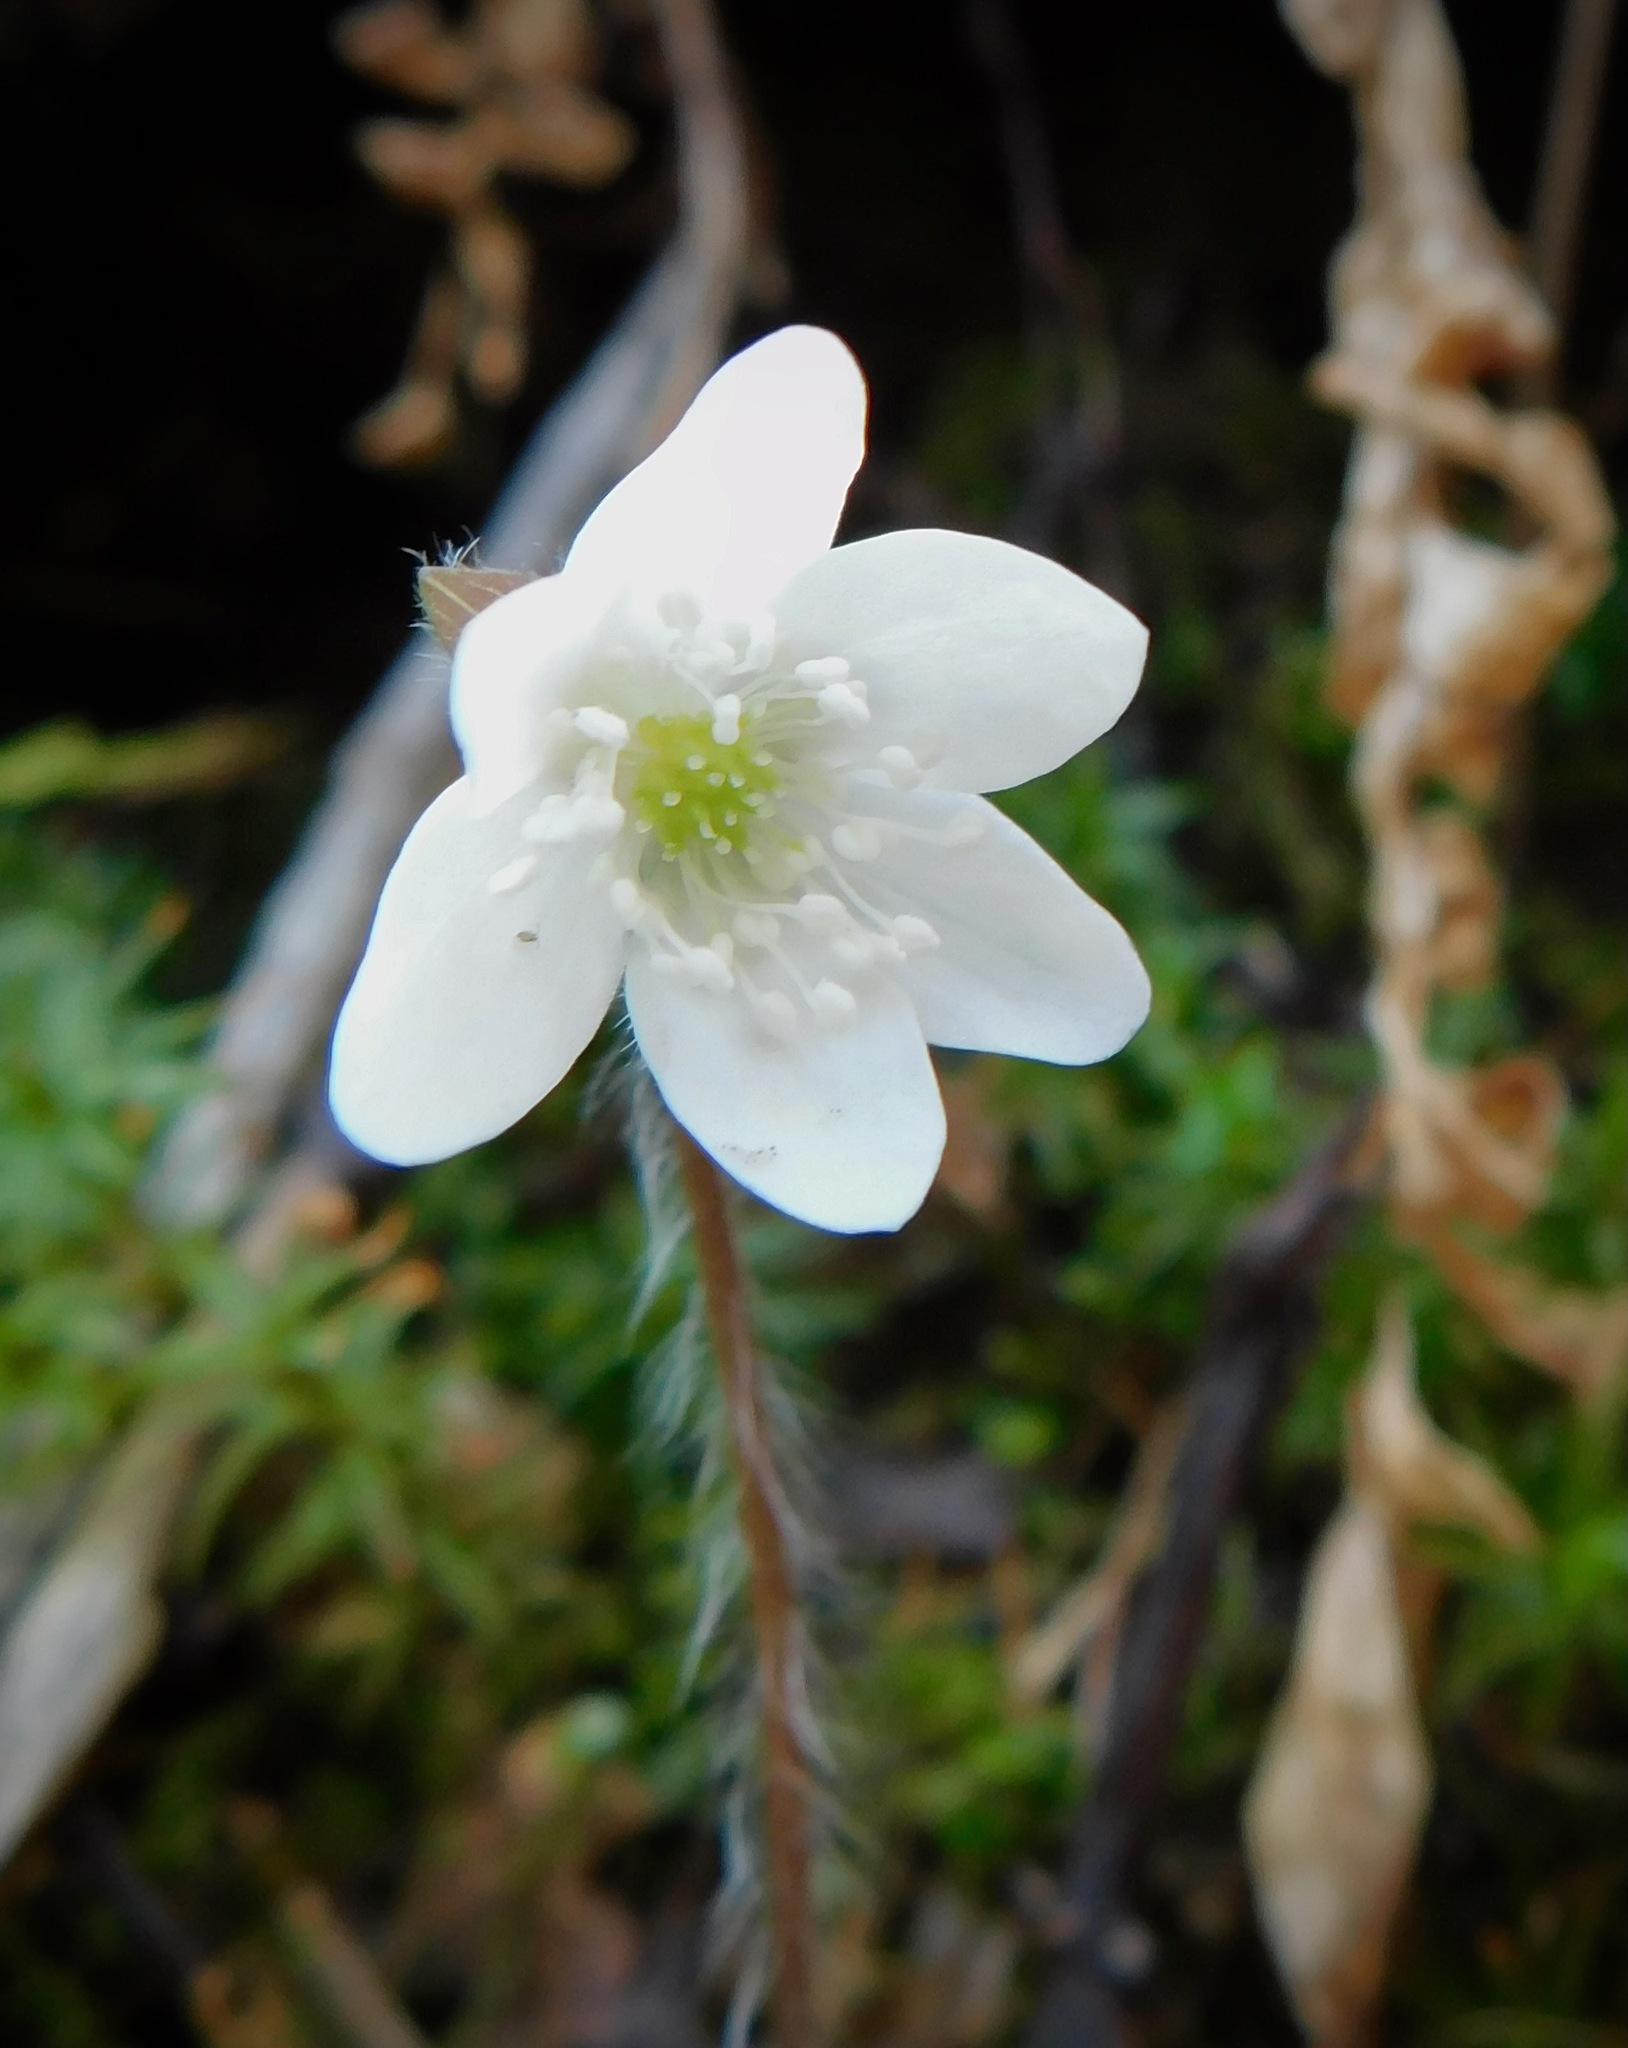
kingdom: Plantae
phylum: Tracheophyta
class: Magnoliopsida
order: Ranunculales
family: Ranunculaceae
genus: Hepatica
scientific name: Hepatica acutiloba
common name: Sharp-lobed hepatica
